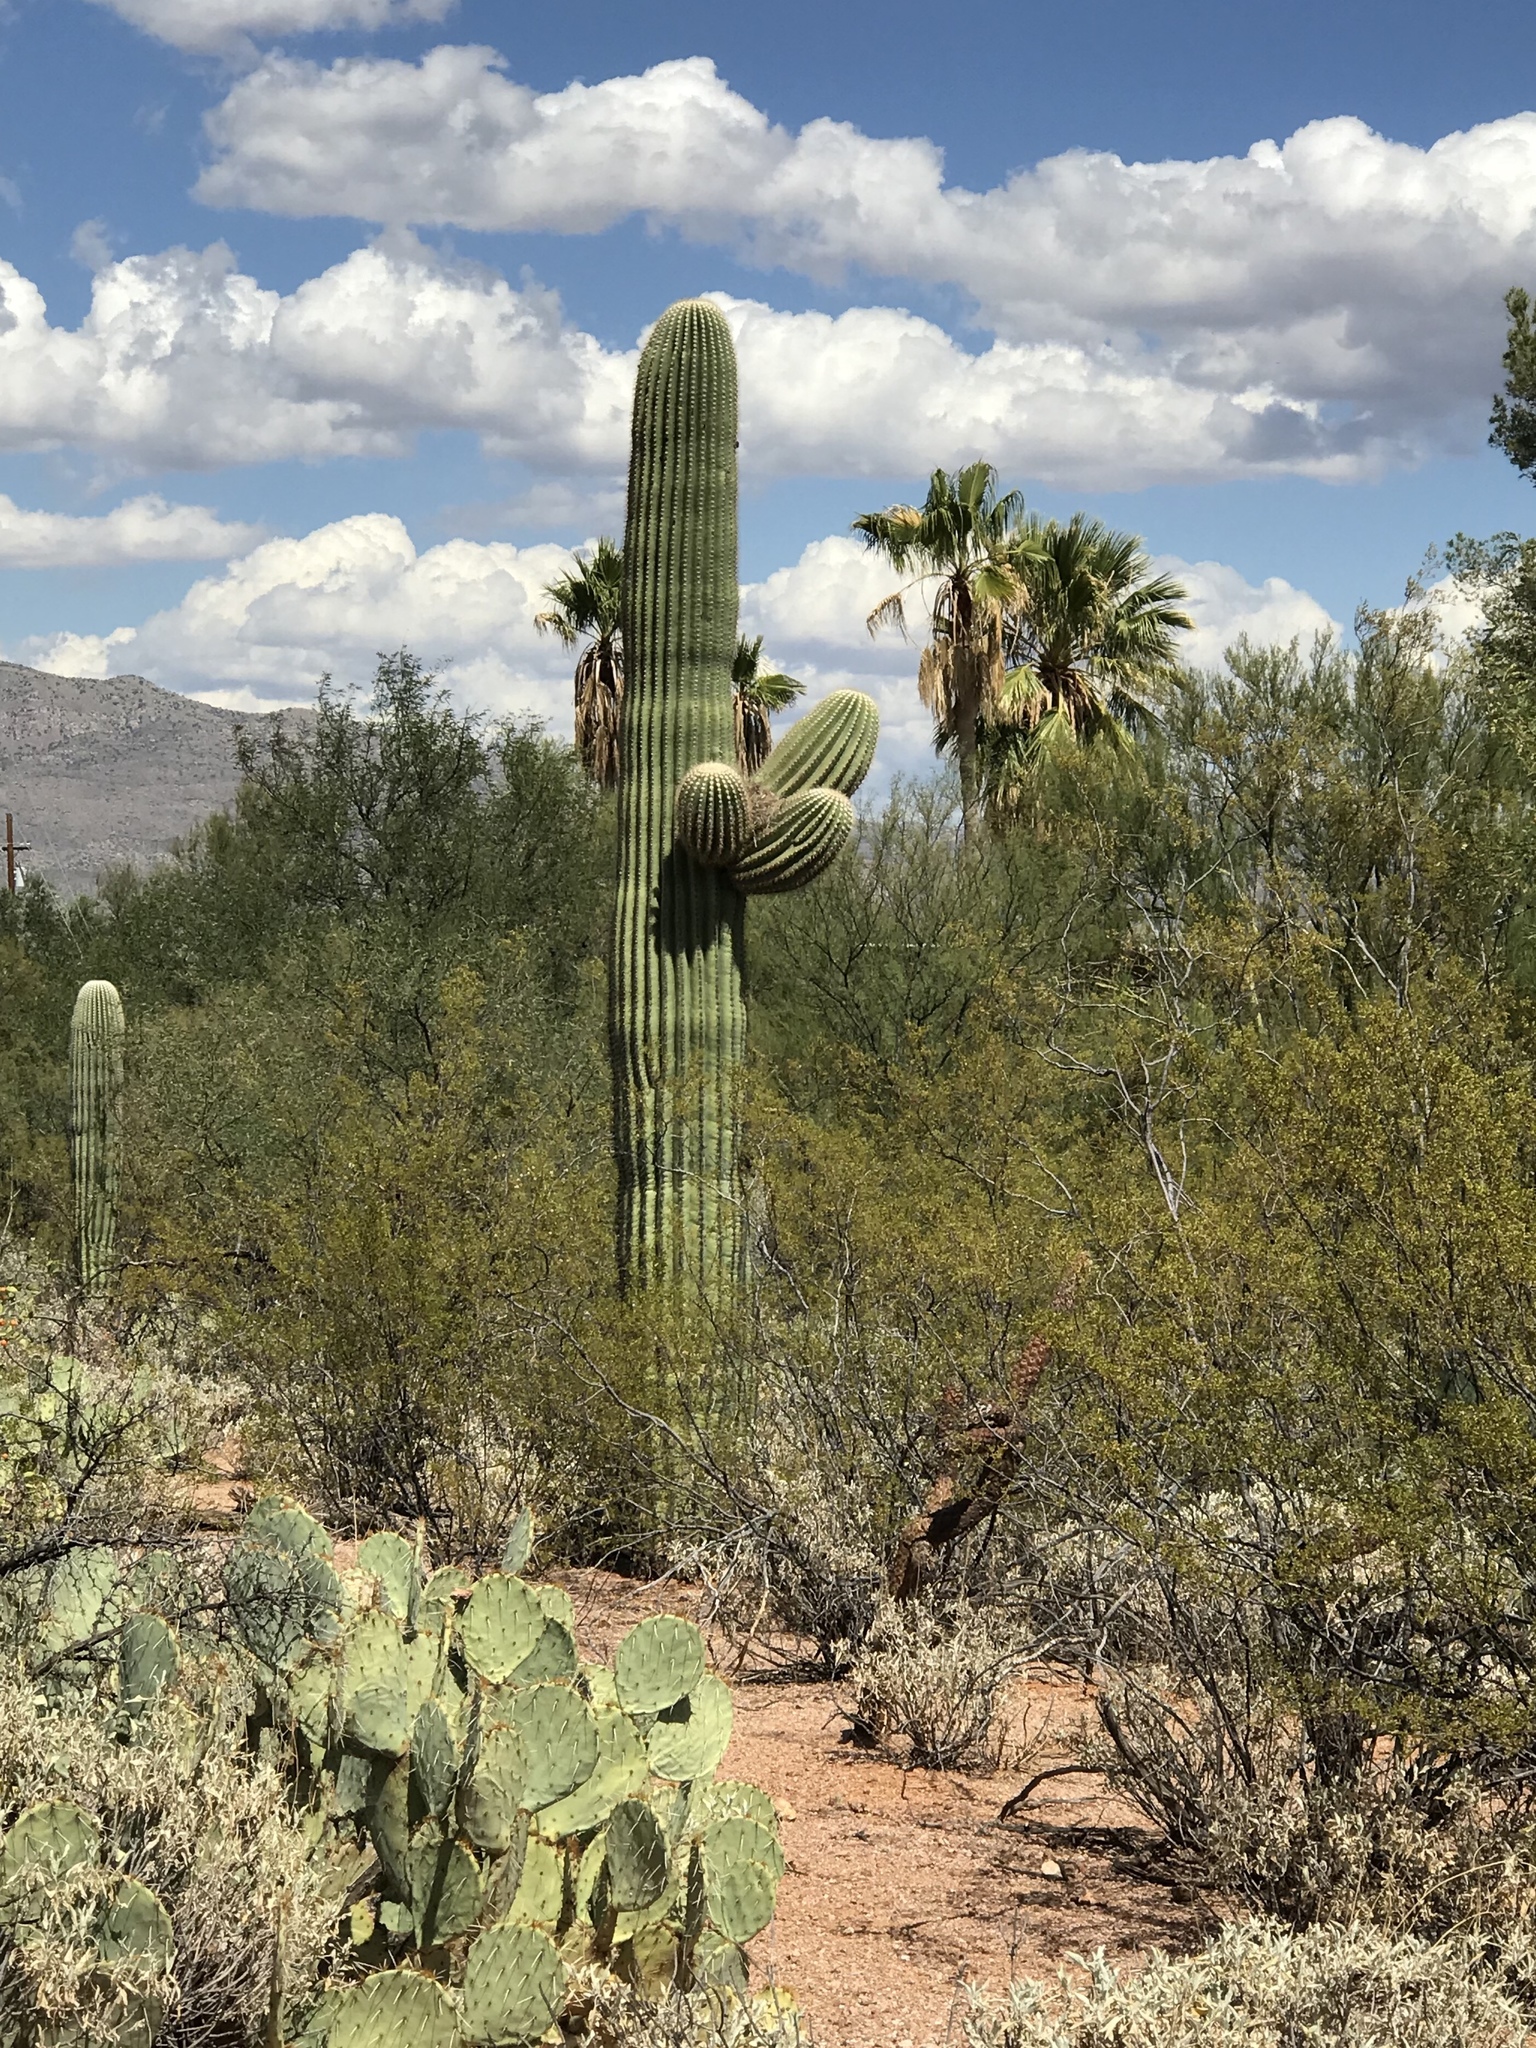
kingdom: Plantae
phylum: Tracheophyta
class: Magnoliopsida
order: Caryophyllales
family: Cactaceae
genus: Carnegiea
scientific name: Carnegiea gigantea
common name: Saguaro
